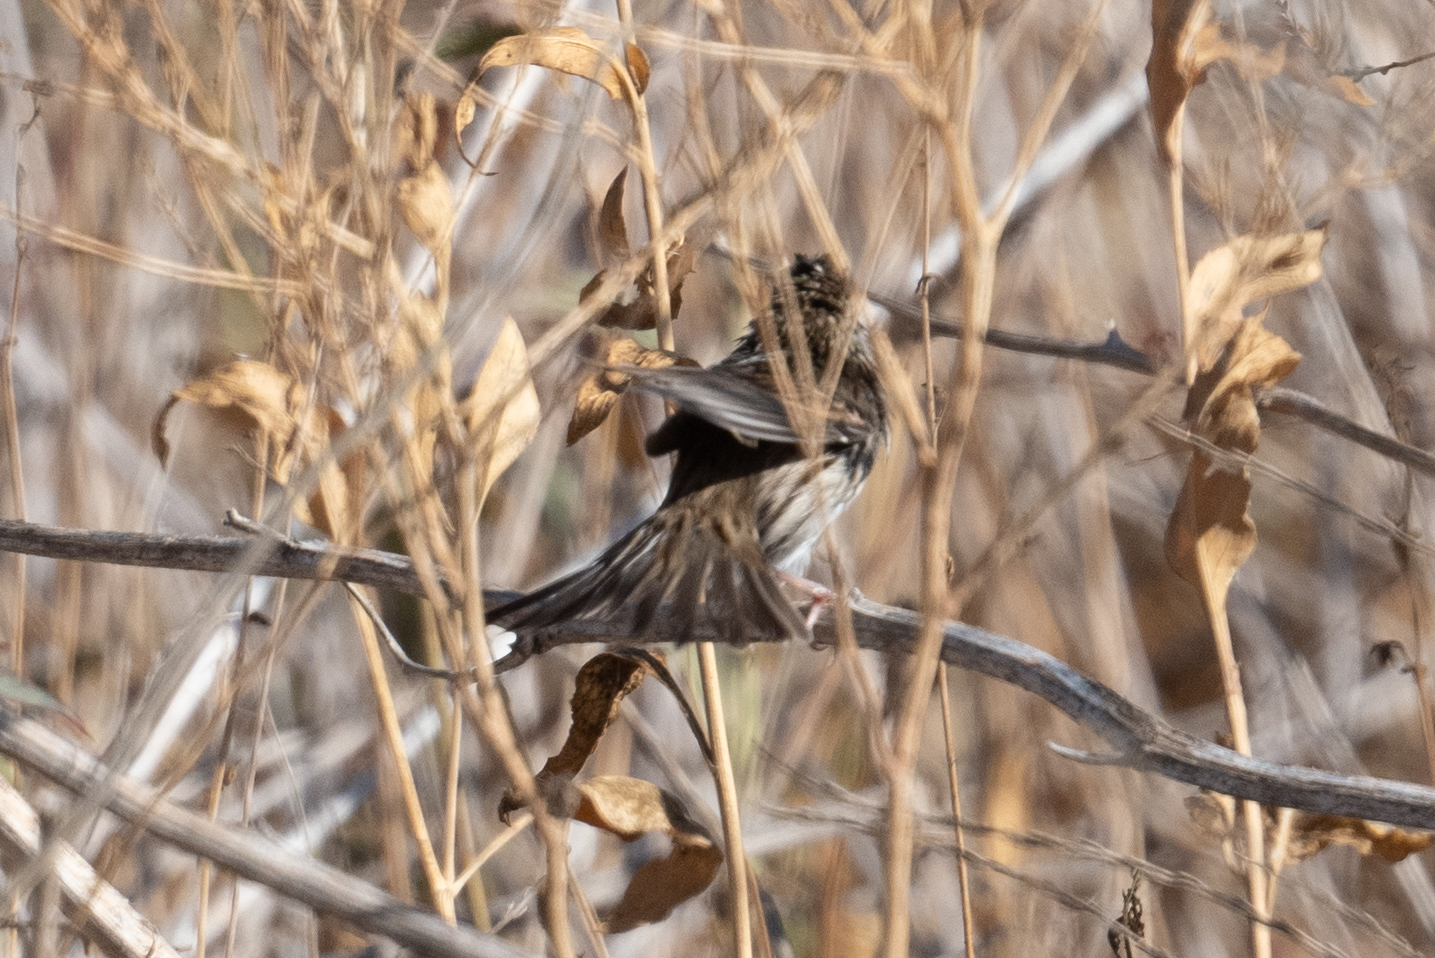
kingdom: Animalia
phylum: Chordata
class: Aves
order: Passeriformes
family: Passerellidae
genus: Passerculus
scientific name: Passerculus sandwichensis
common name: Savannah sparrow
